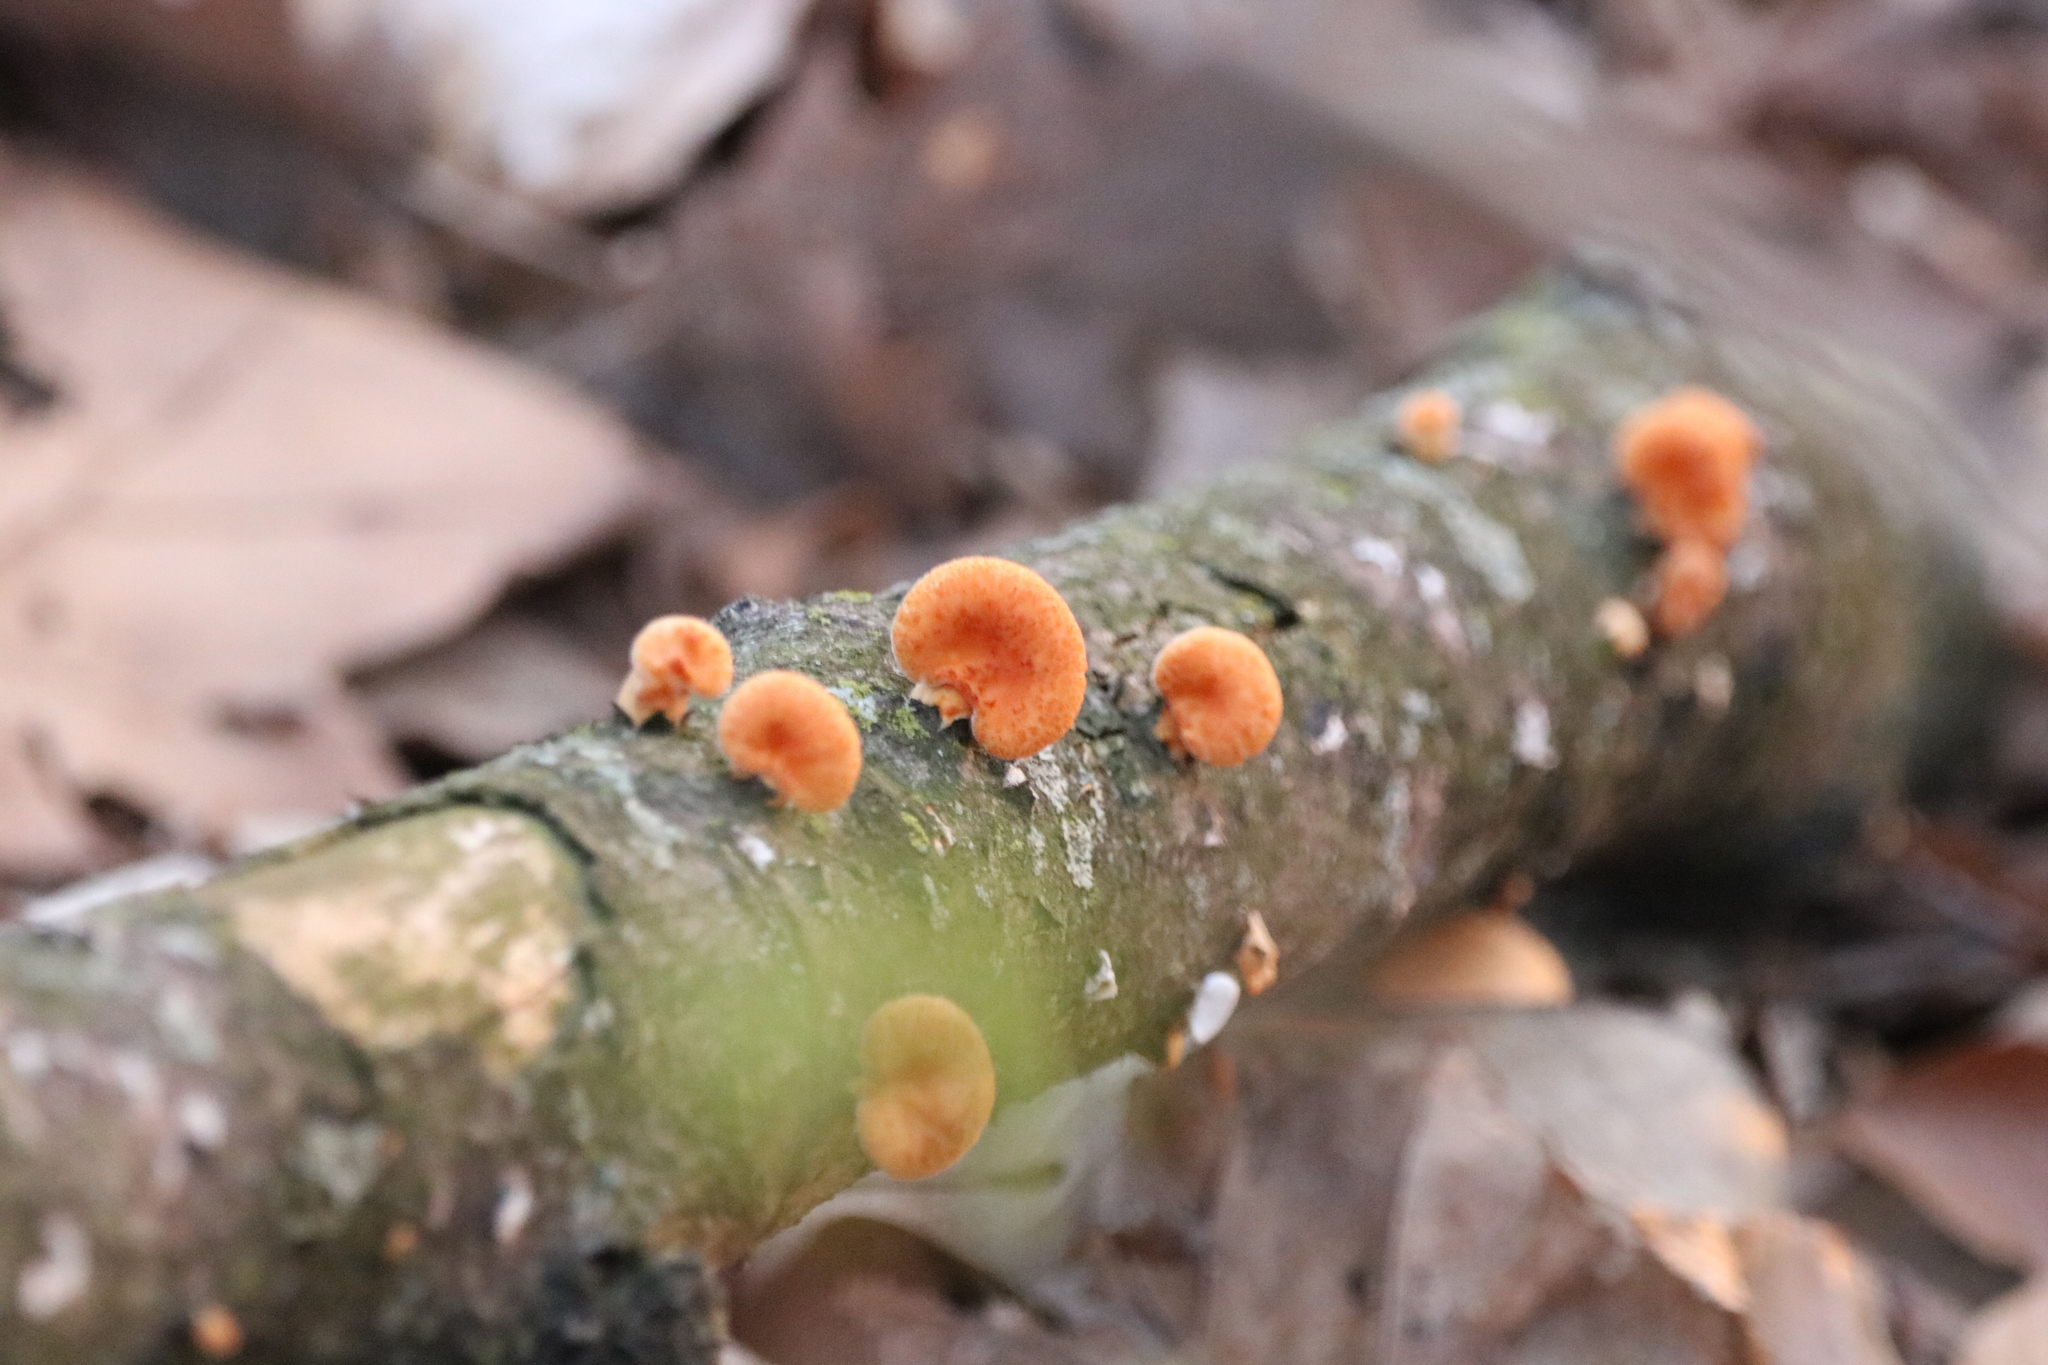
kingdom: Fungi
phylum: Basidiomycota
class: Agaricomycetes
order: Polyporales
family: Polyporaceae
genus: Neofavolus
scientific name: Neofavolus alveolaris
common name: Hexagonal-pored polypore
